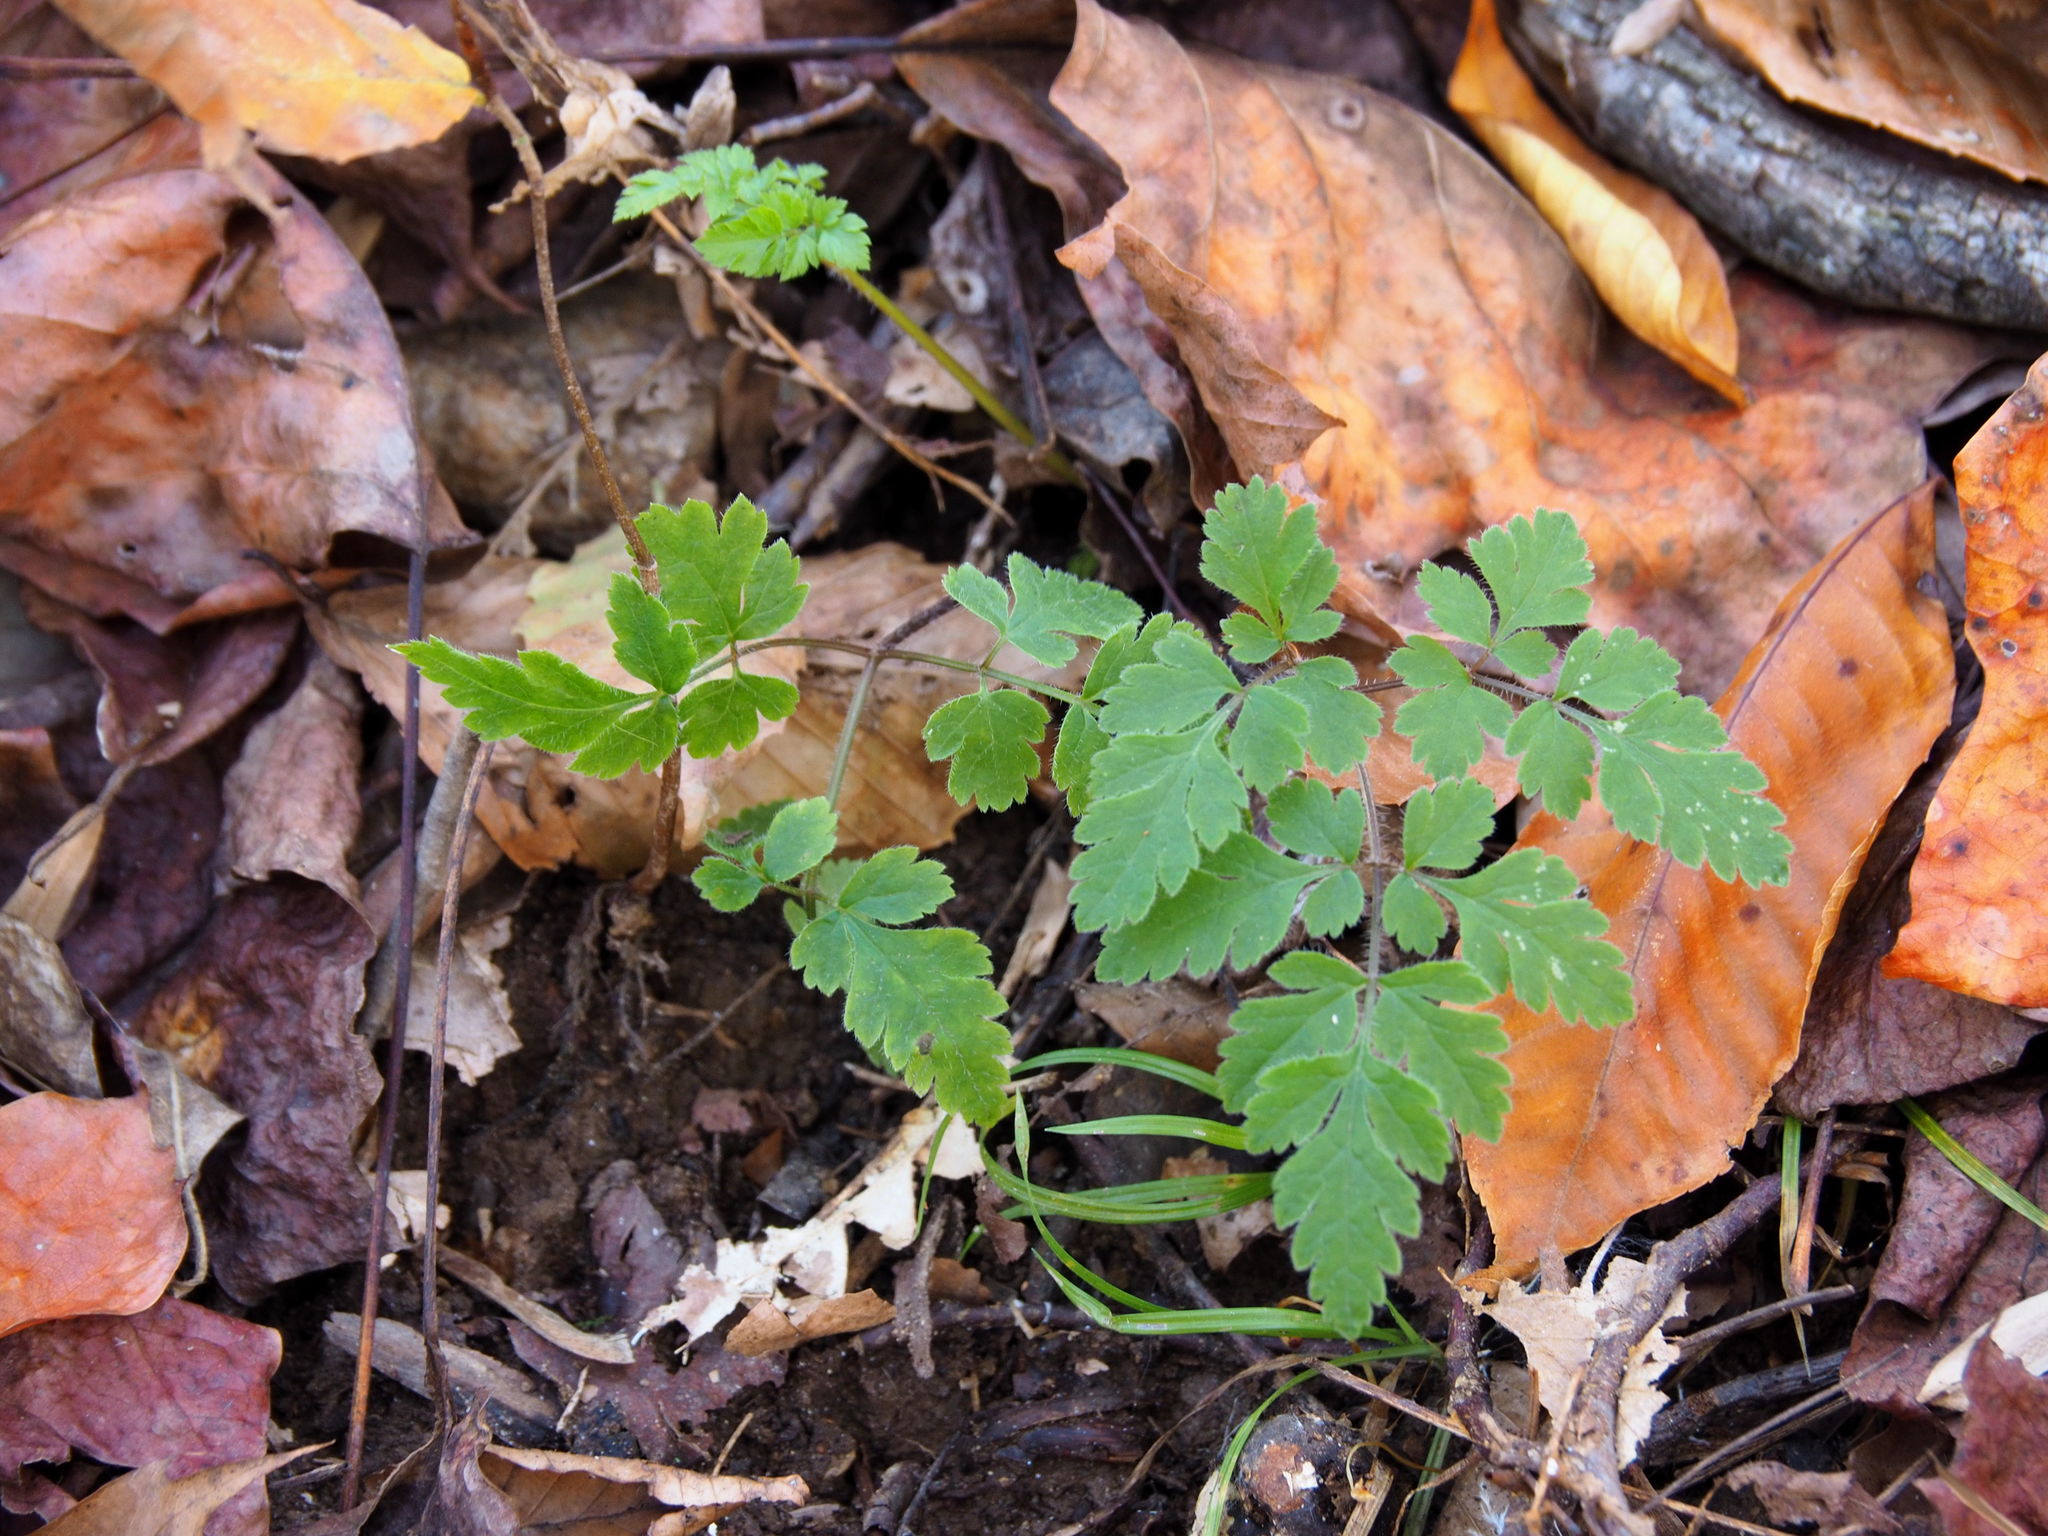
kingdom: Plantae
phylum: Tracheophyta
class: Magnoliopsida
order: Apiales
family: Apiaceae
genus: Osmorhiza
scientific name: Osmorhiza claytonii
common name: Hairy sweet cicely
